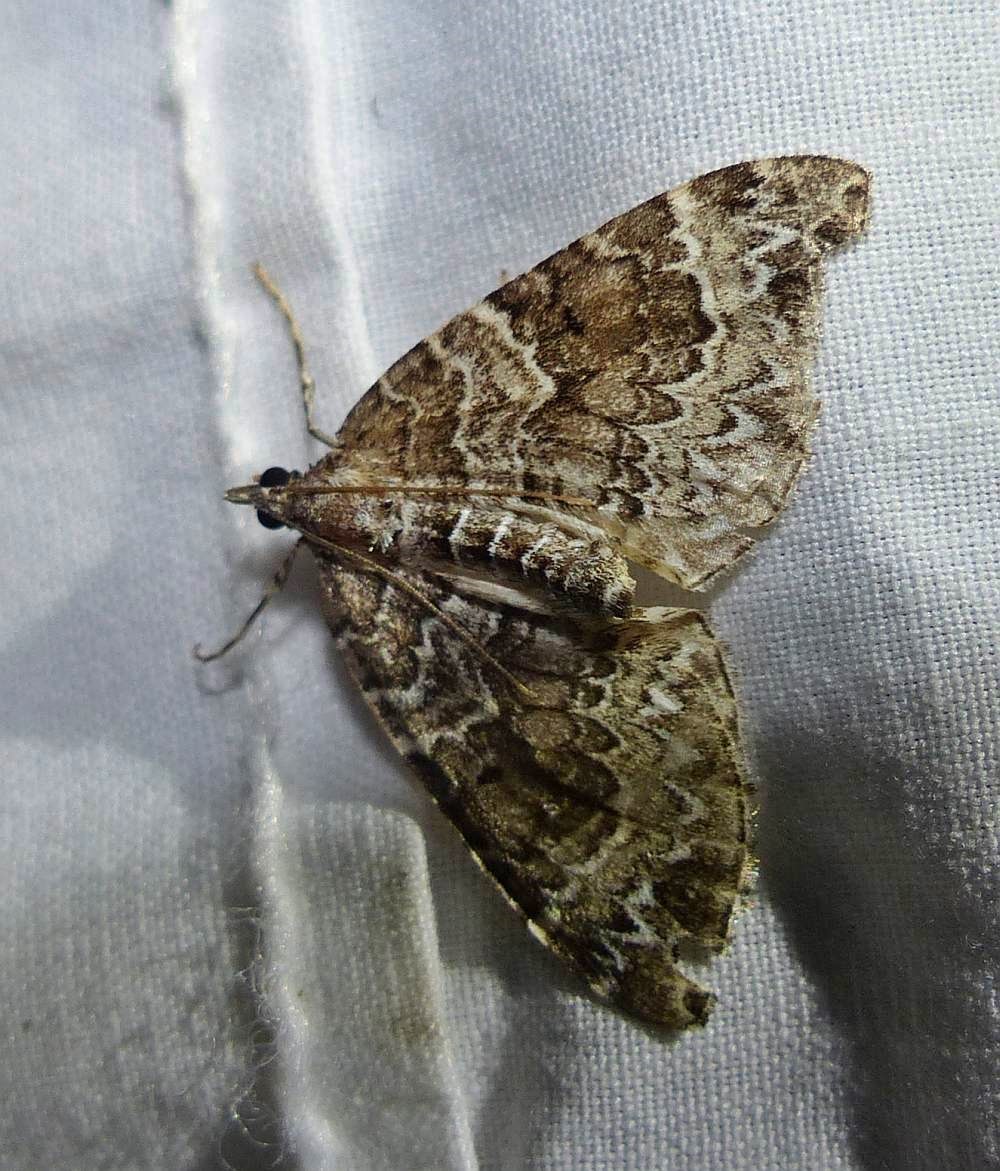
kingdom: Animalia
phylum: Arthropoda
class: Insecta
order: Lepidoptera
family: Geometridae
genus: Eulithis
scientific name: Eulithis explanata
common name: White eulithis
